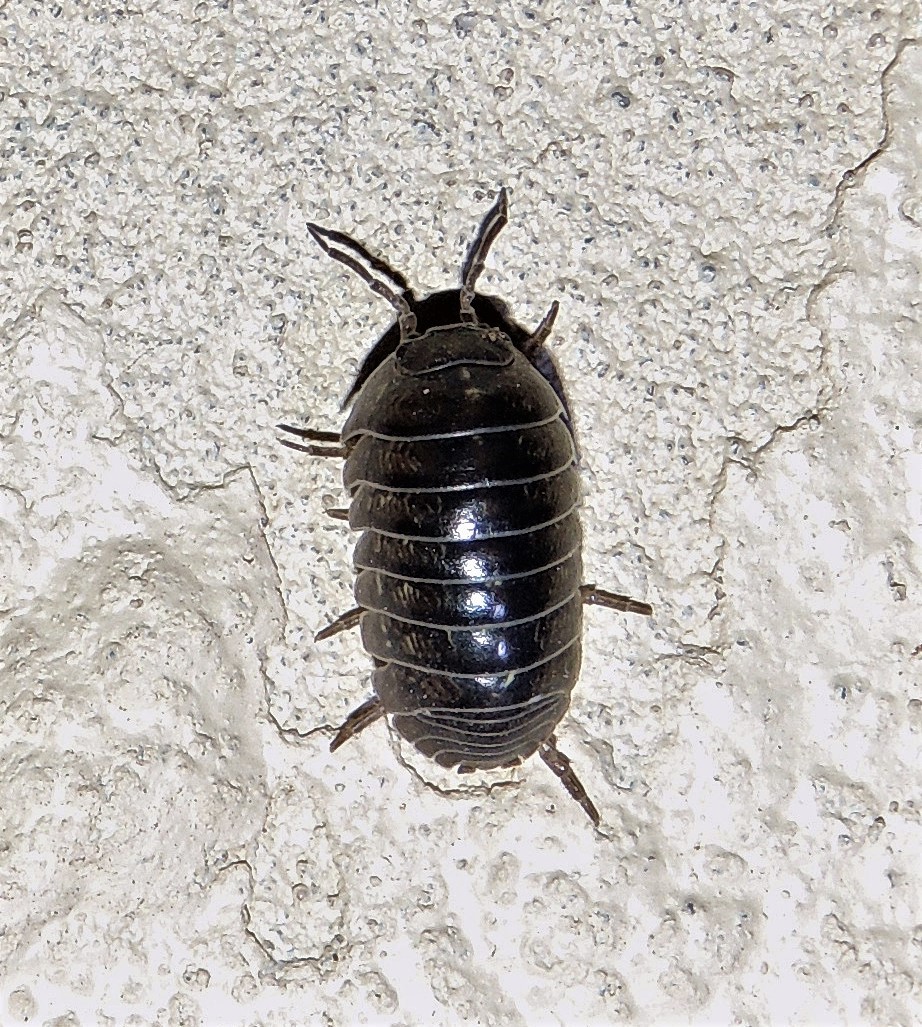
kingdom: Animalia
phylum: Arthropoda
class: Malacostraca
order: Isopoda
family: Armadillidiidae
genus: Armadillidium
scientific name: Armadillidium vulgare
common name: Common pill woodlouse
